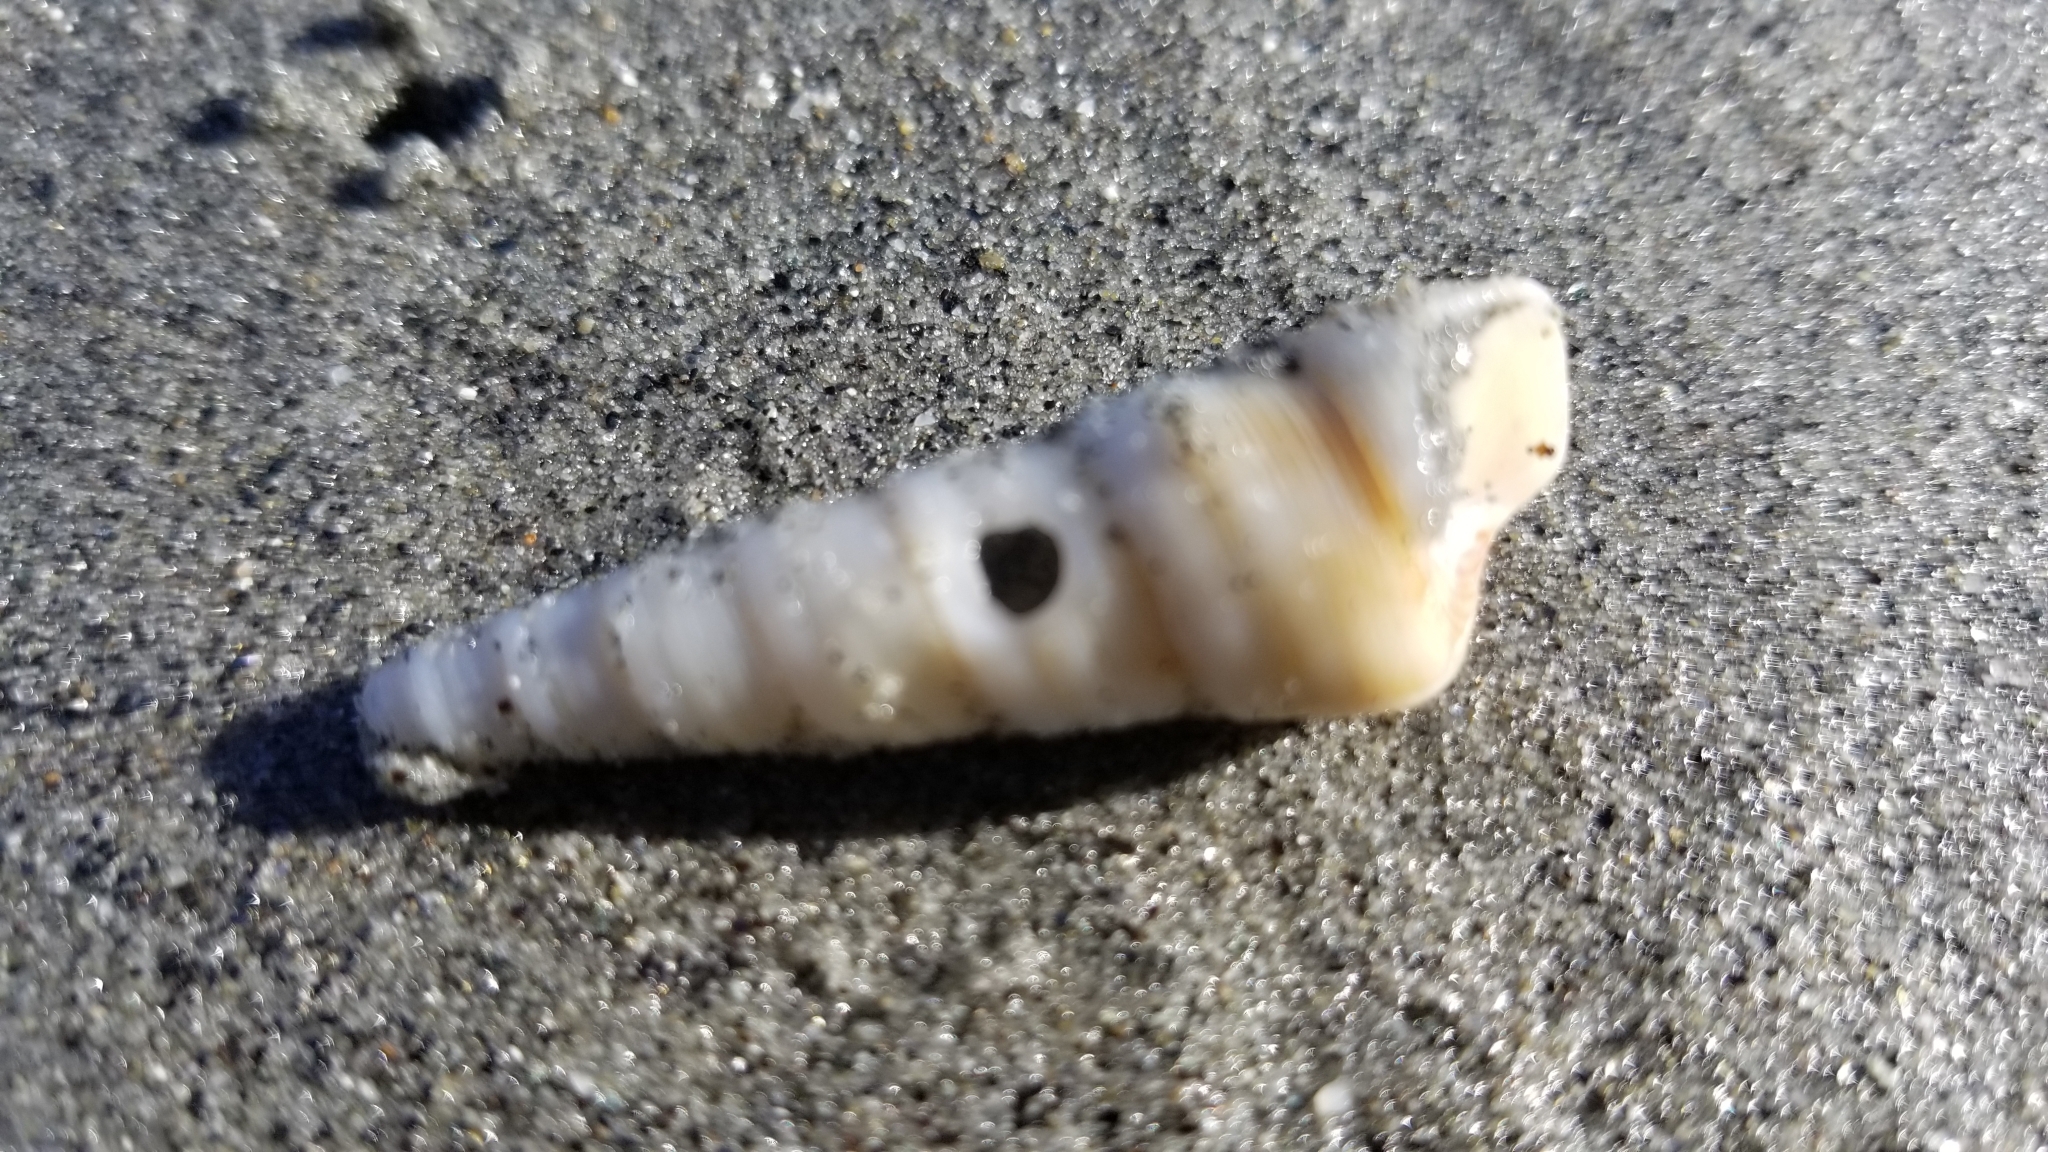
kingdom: Animalia
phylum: Mollusca
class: Gastropoda
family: Turritellidae
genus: Maoricolpus
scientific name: Maoricolpus roseus
